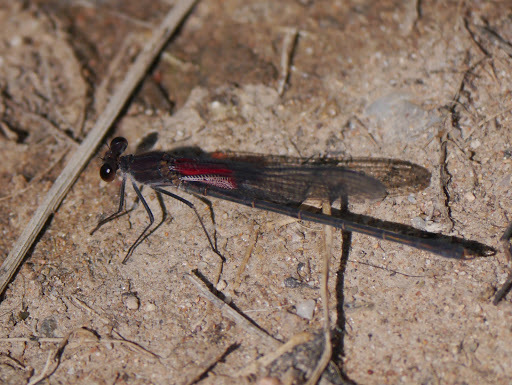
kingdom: Animalia
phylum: Arthropoda
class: Insecta
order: Odonata
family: Calopterygidae
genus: Hetaerina
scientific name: Hetaerina americana
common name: American rubyspot
